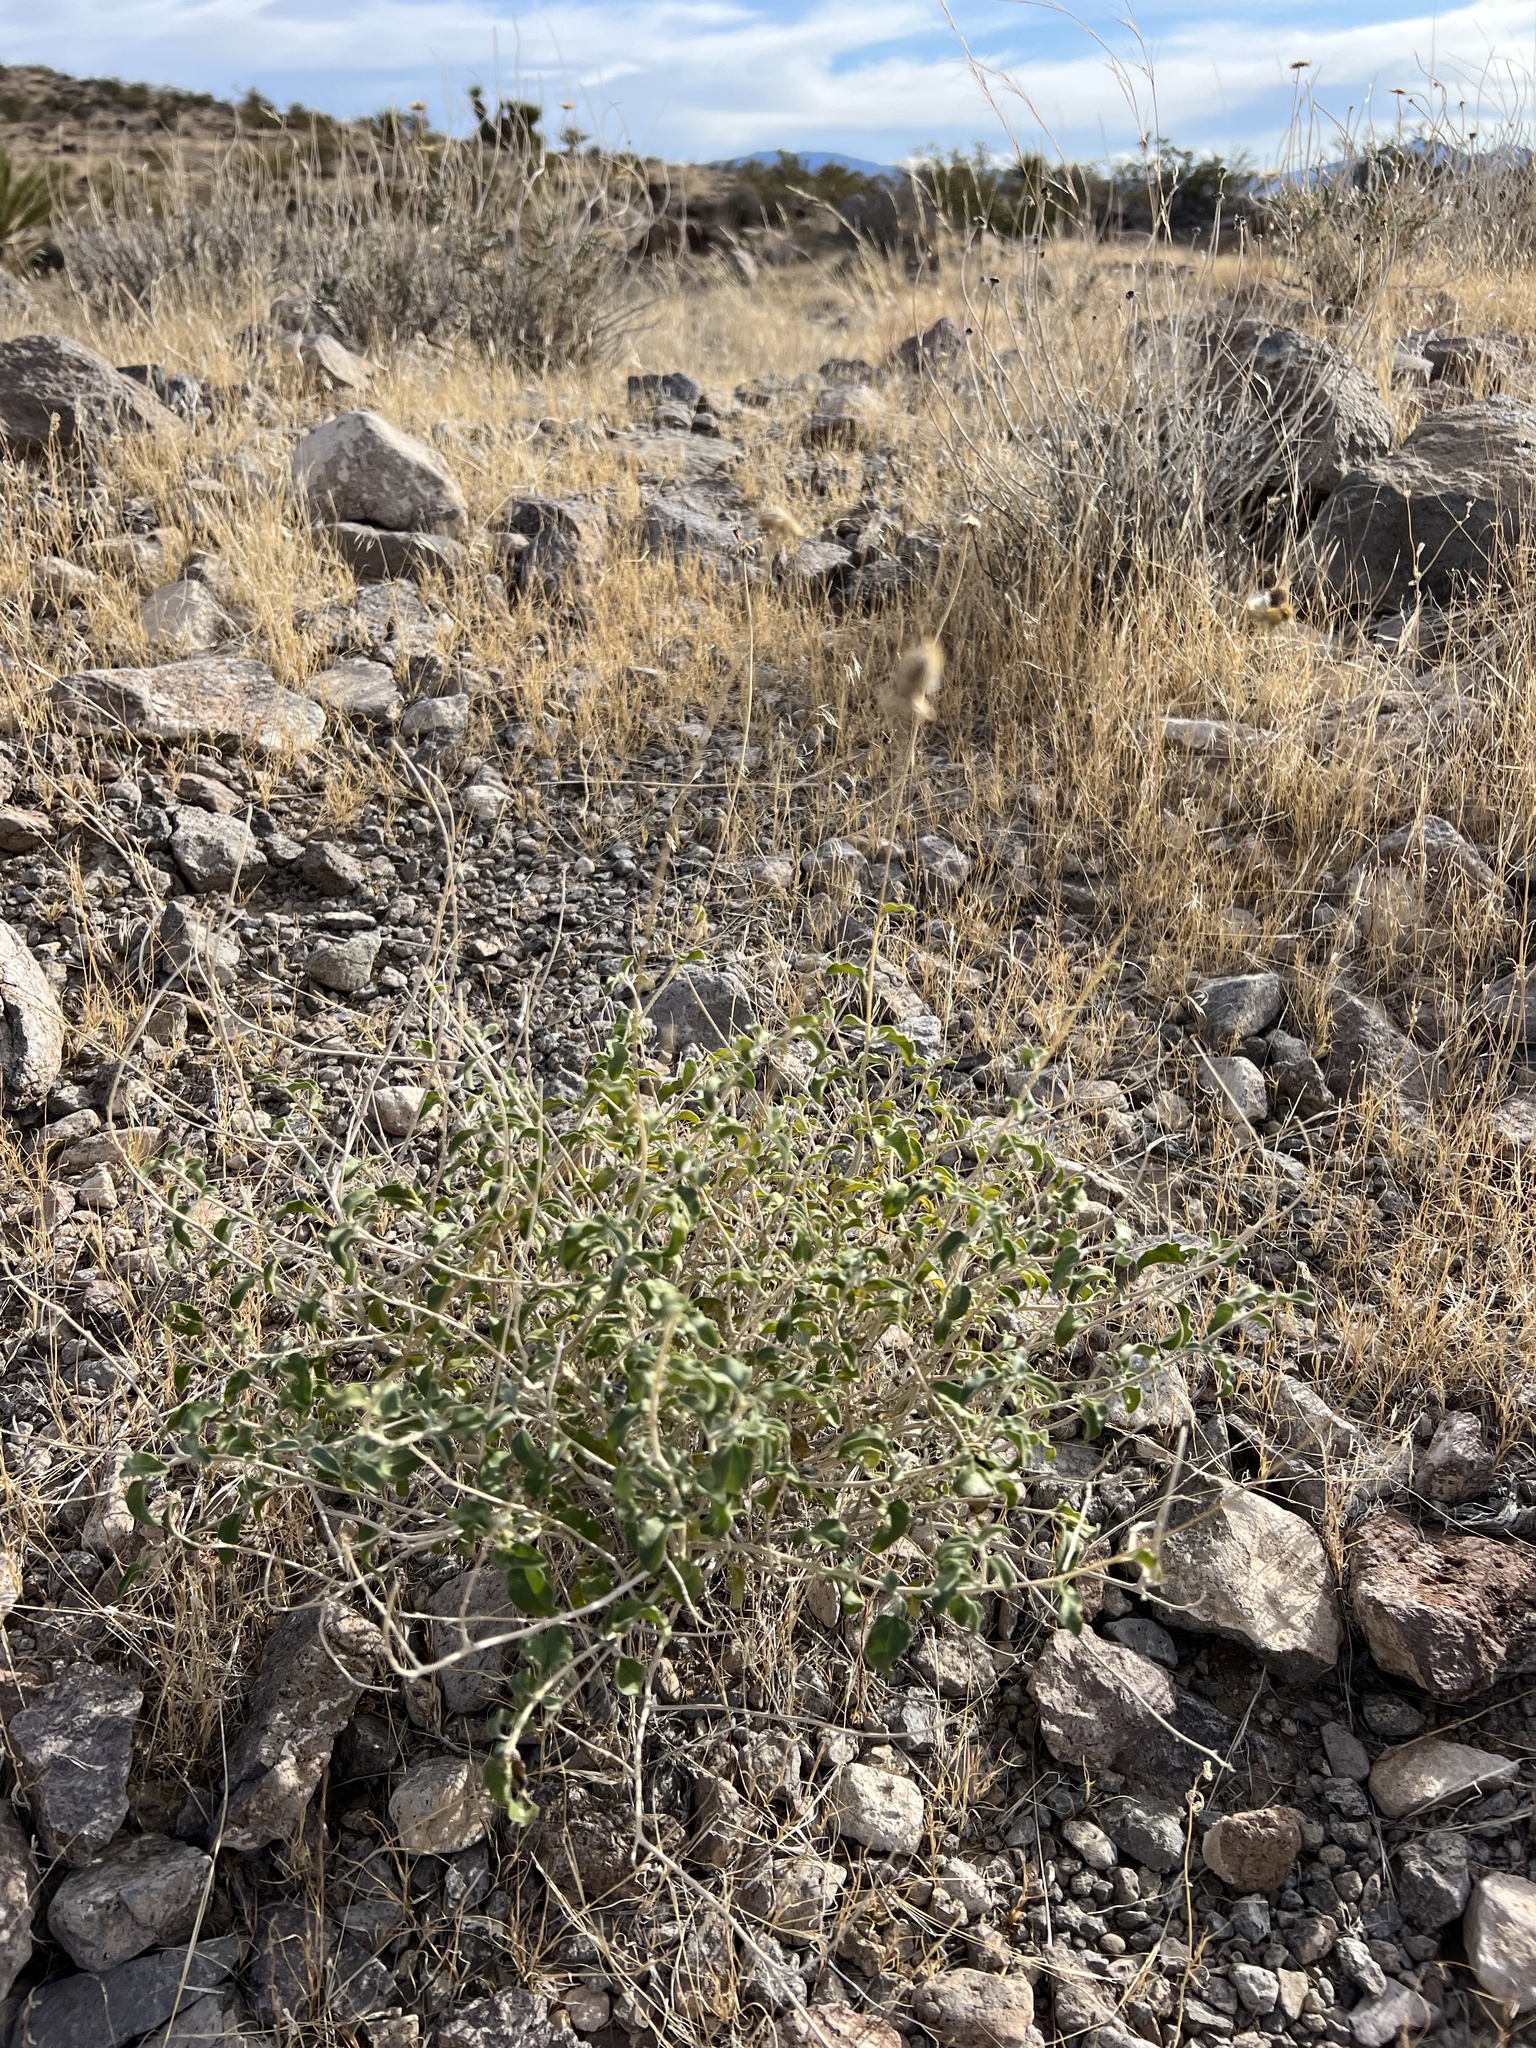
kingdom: Plantae
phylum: Tracheophyta
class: Magnoliopsida
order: Asterales
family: Asteraceae
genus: Encelia
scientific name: Encelia virginensis
